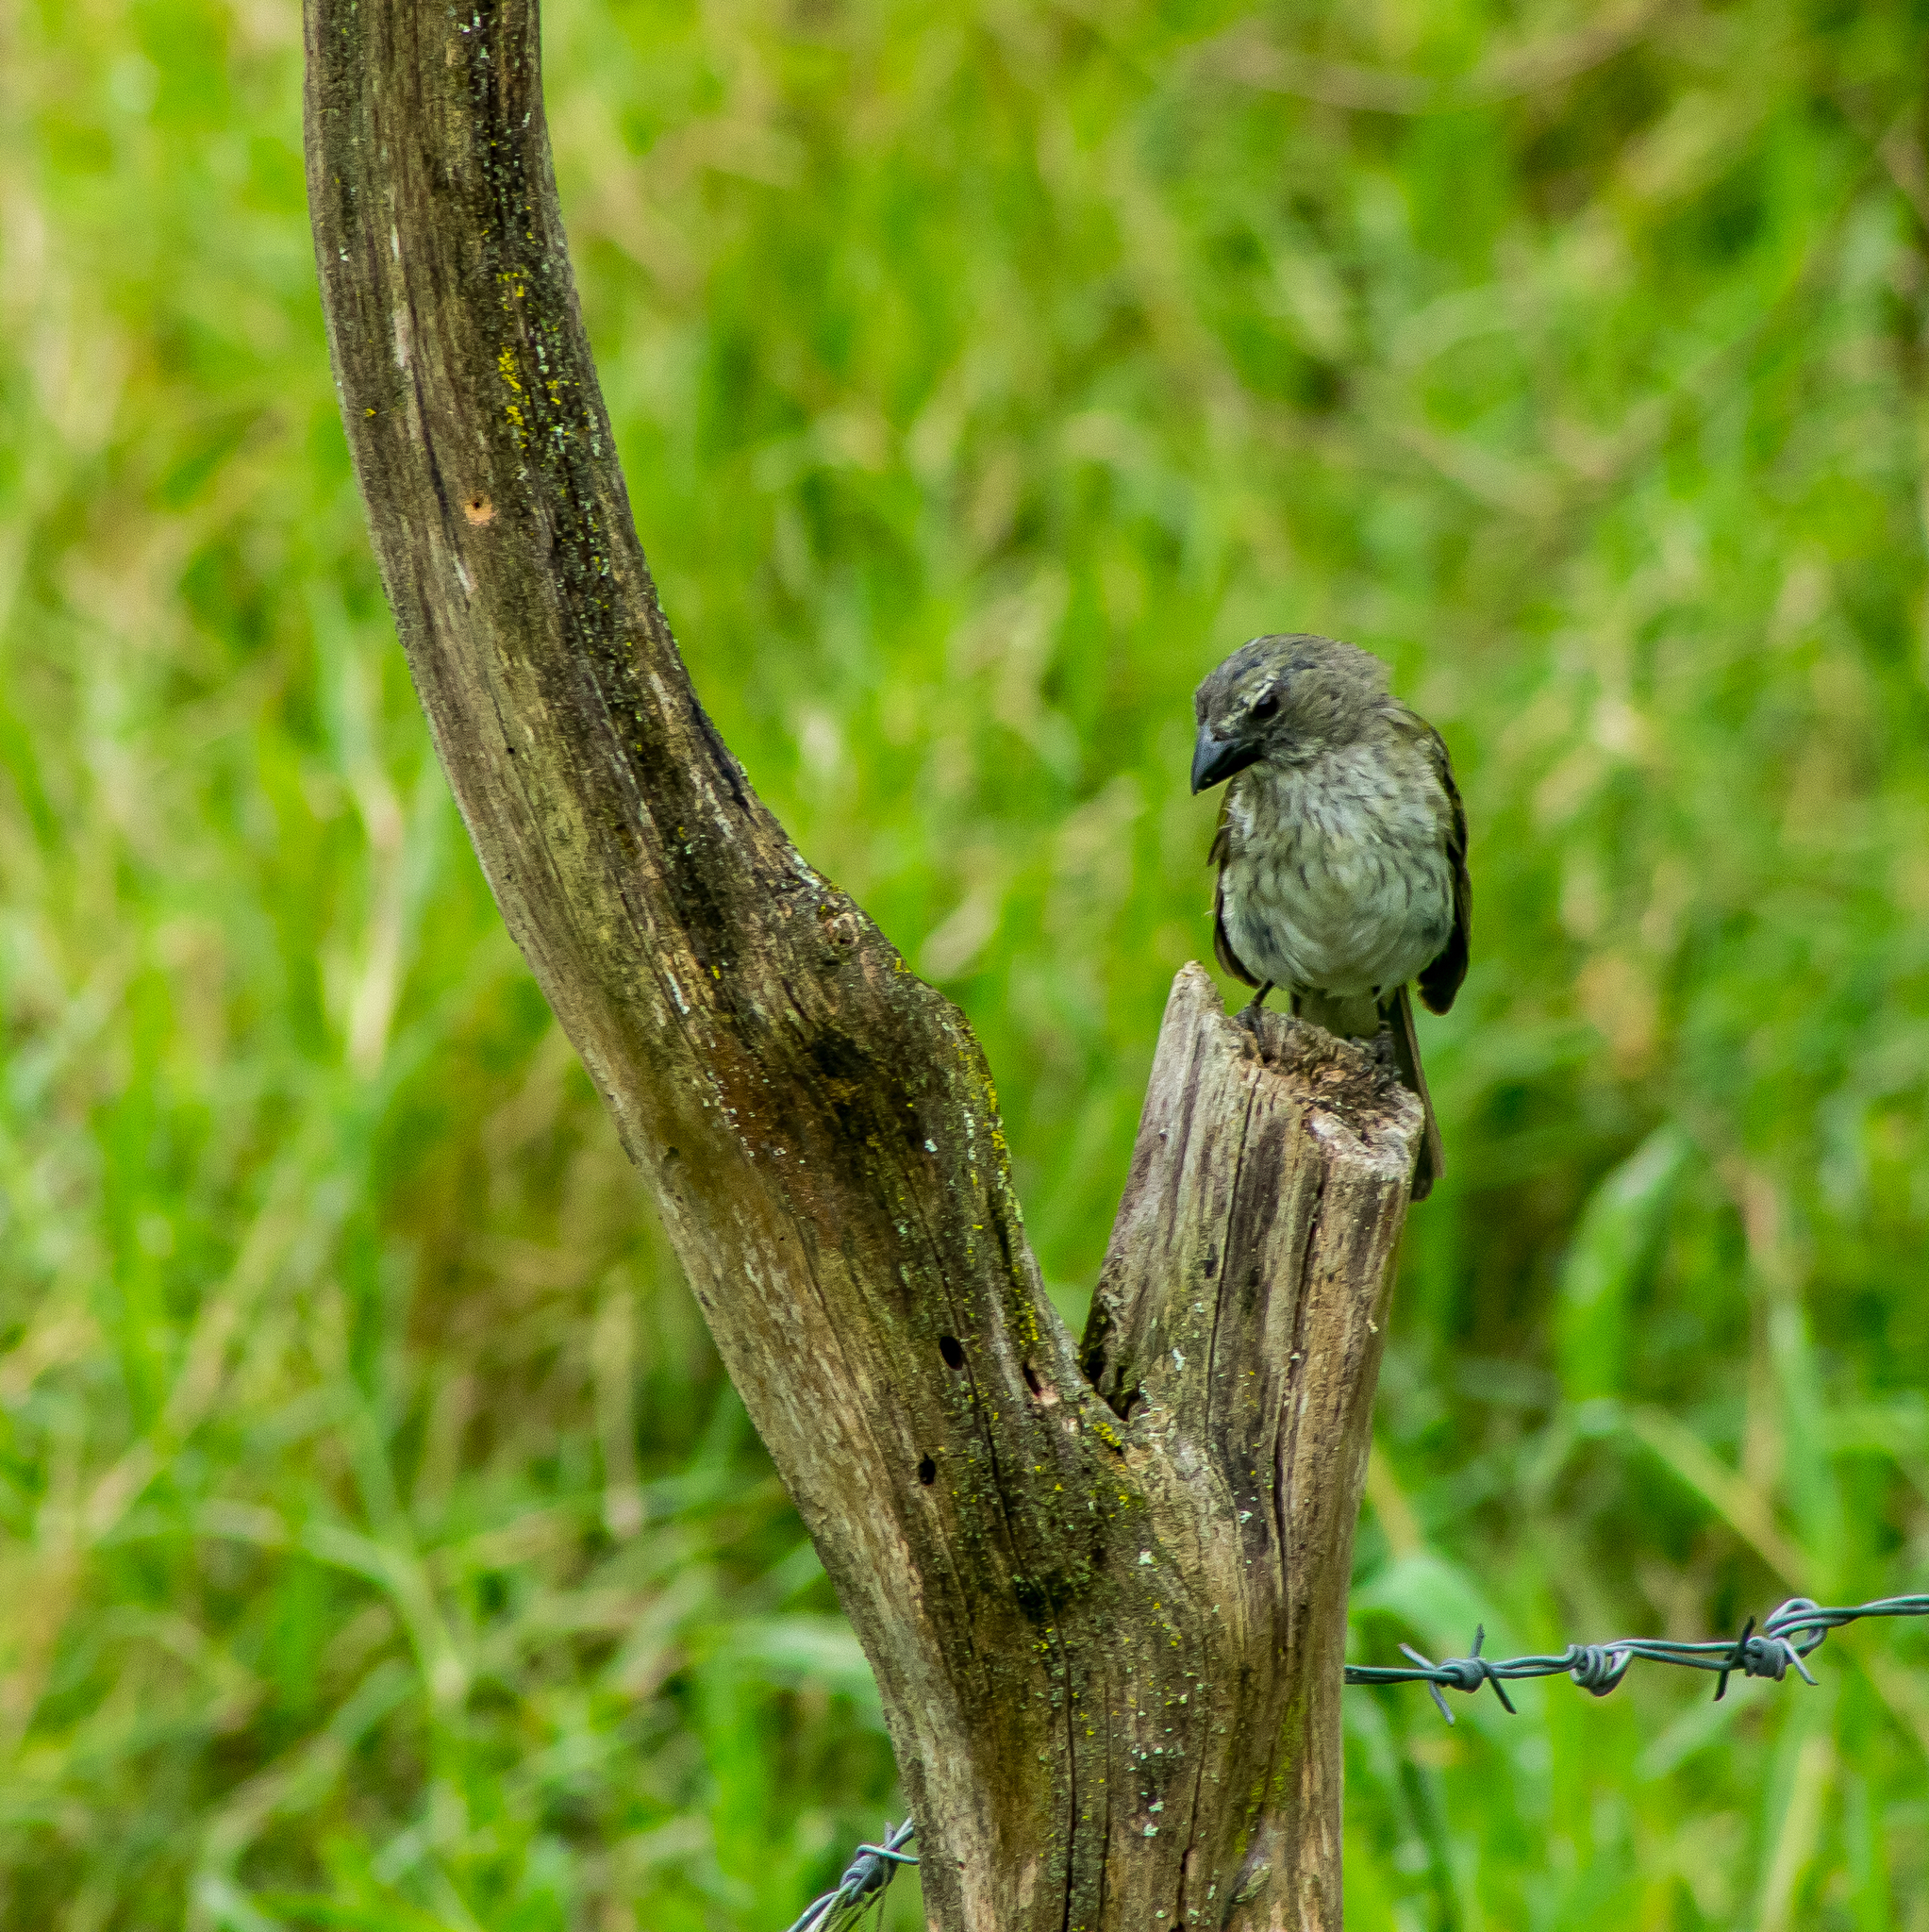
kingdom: Animalia
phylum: Chordata
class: Aves
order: Passeriformes
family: Thraupidae
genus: Saltator
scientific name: Saltator striatipectus
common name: Streaked saltator
